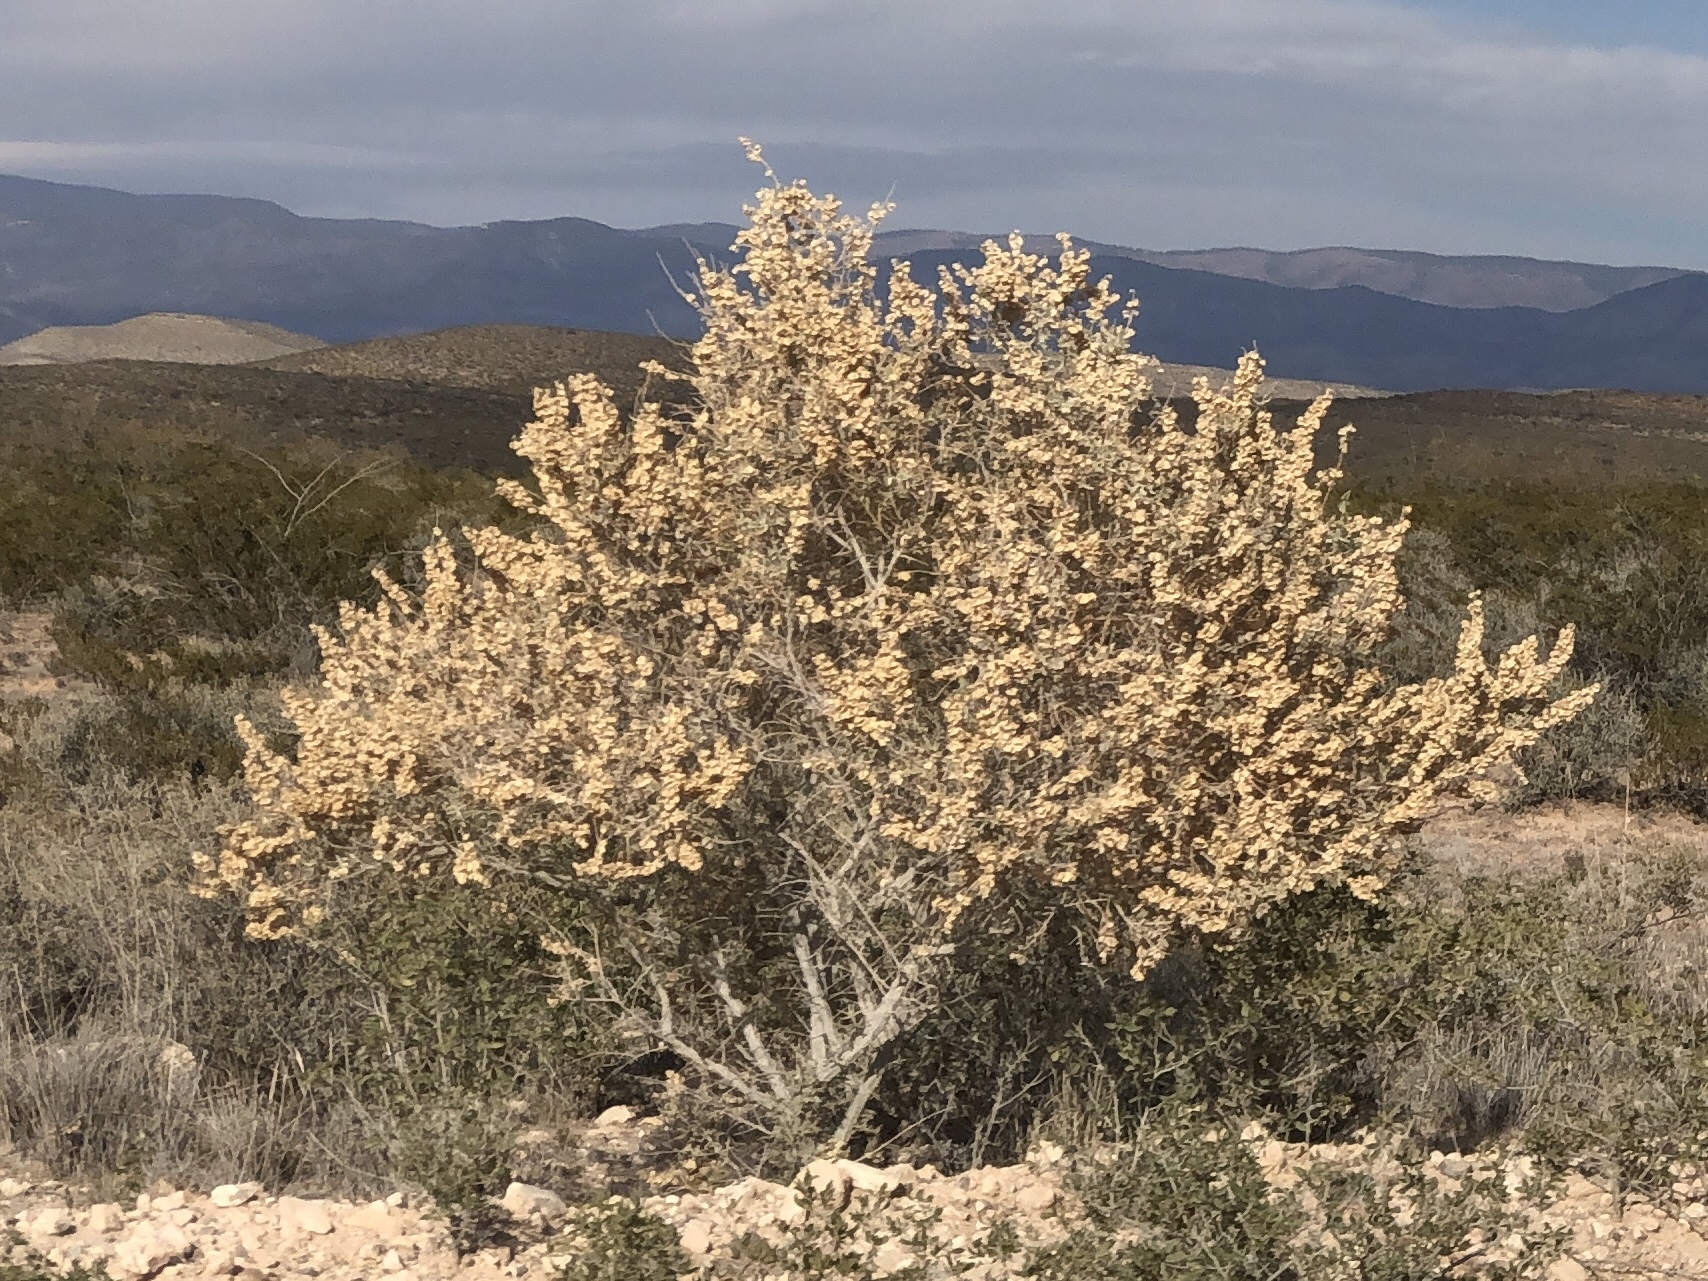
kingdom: Plantae
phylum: Tracheophyta
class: Magnoliopsida
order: Caryophyllales
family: Amaranthaceae
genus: Atriplex
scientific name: Atriplex canescens
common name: Four-wing saltbush
